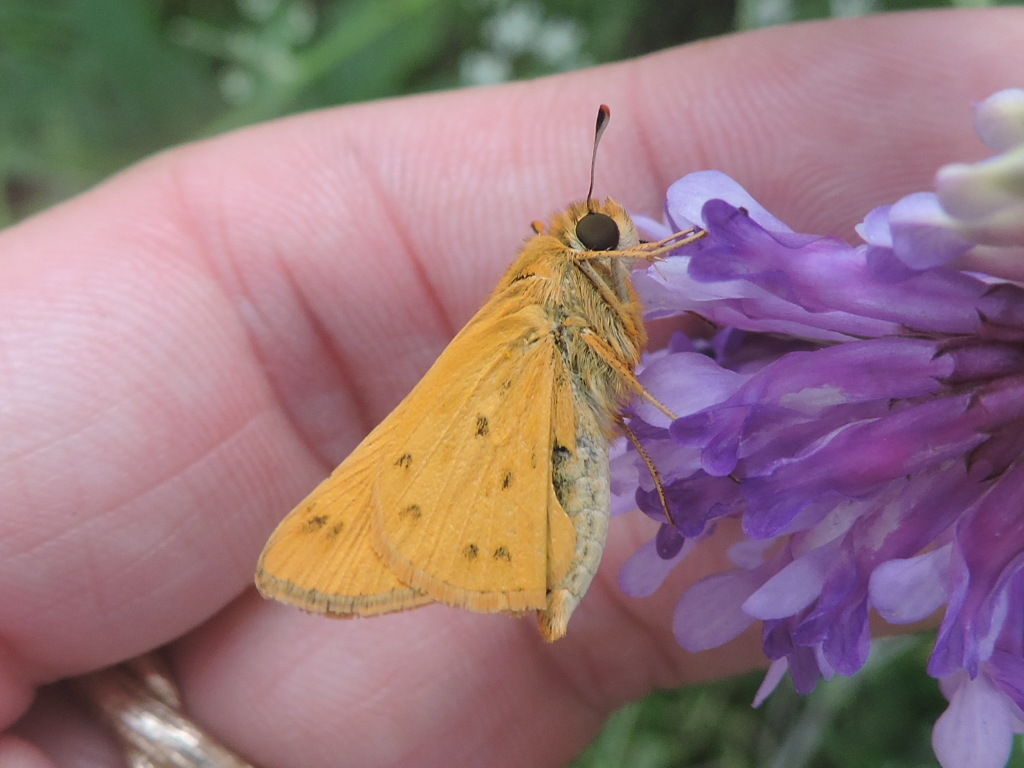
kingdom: Animalia
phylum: Arthropoda
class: Insecta
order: Lepidoptera
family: Hesperiidae
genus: Hylephila
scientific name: Hylephila phyleus
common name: Fiery skipper
